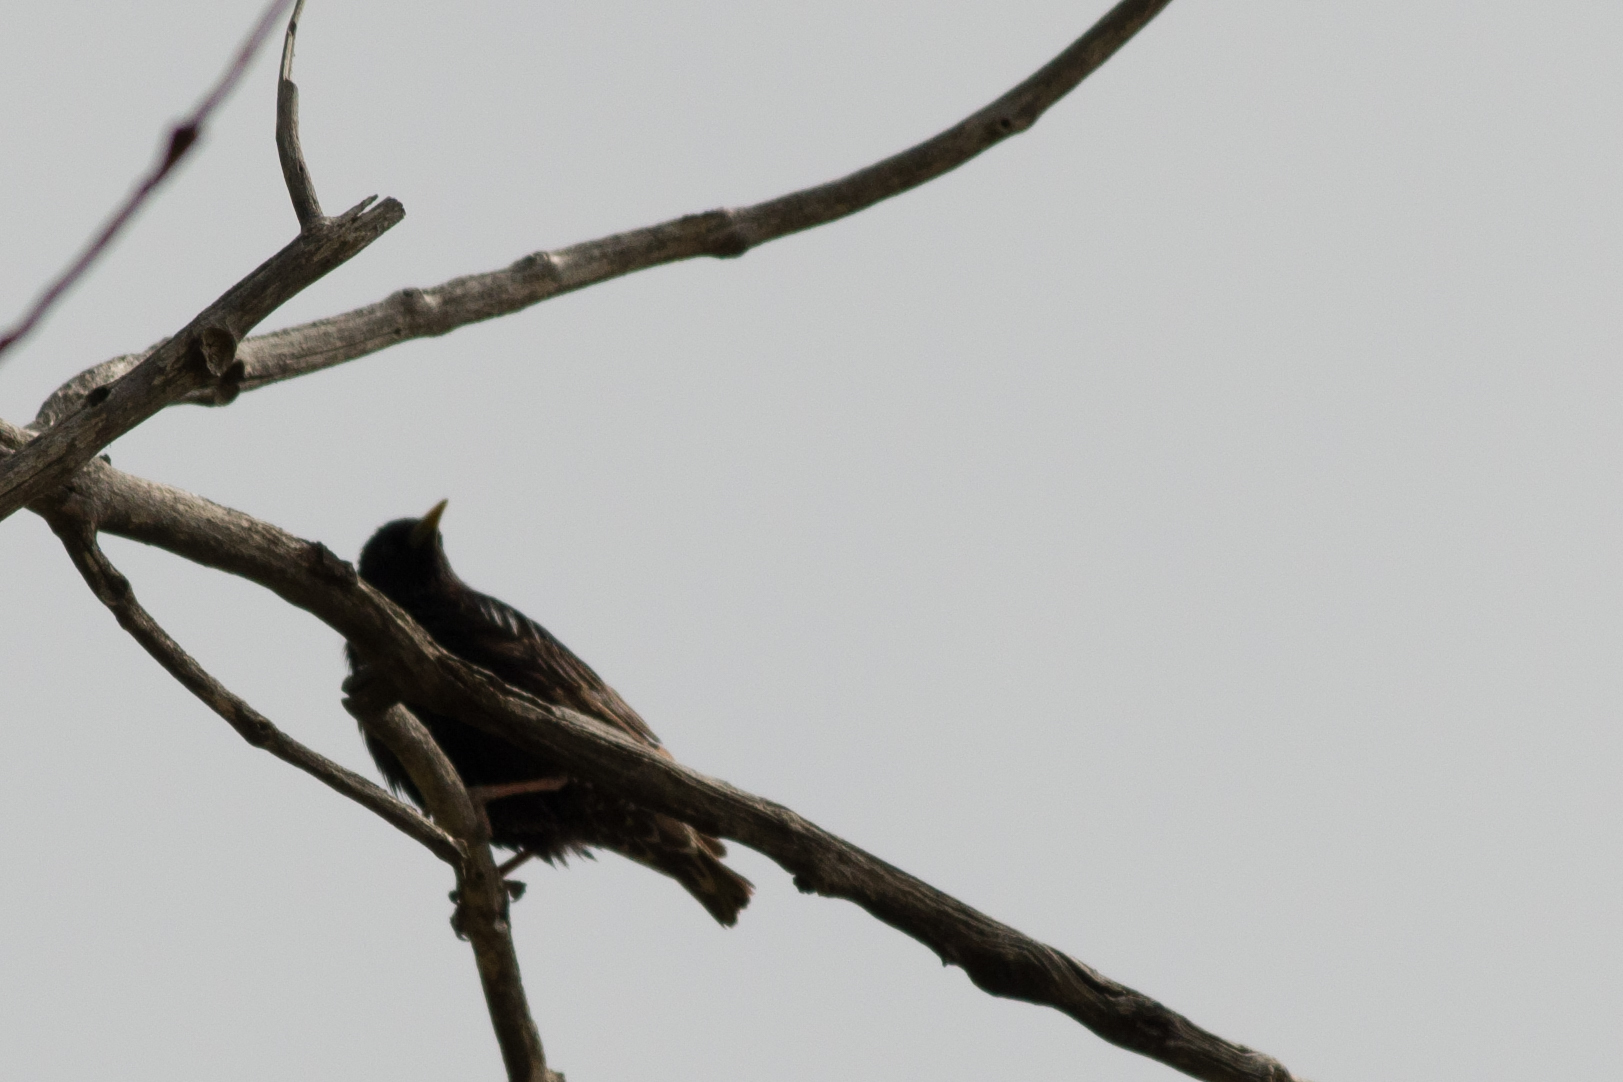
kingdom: Animalia
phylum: Chordata
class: Aves
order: Passeriformes
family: Sturnidae
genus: Sturnus
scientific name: Sturnus vulgaris
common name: Common starling
